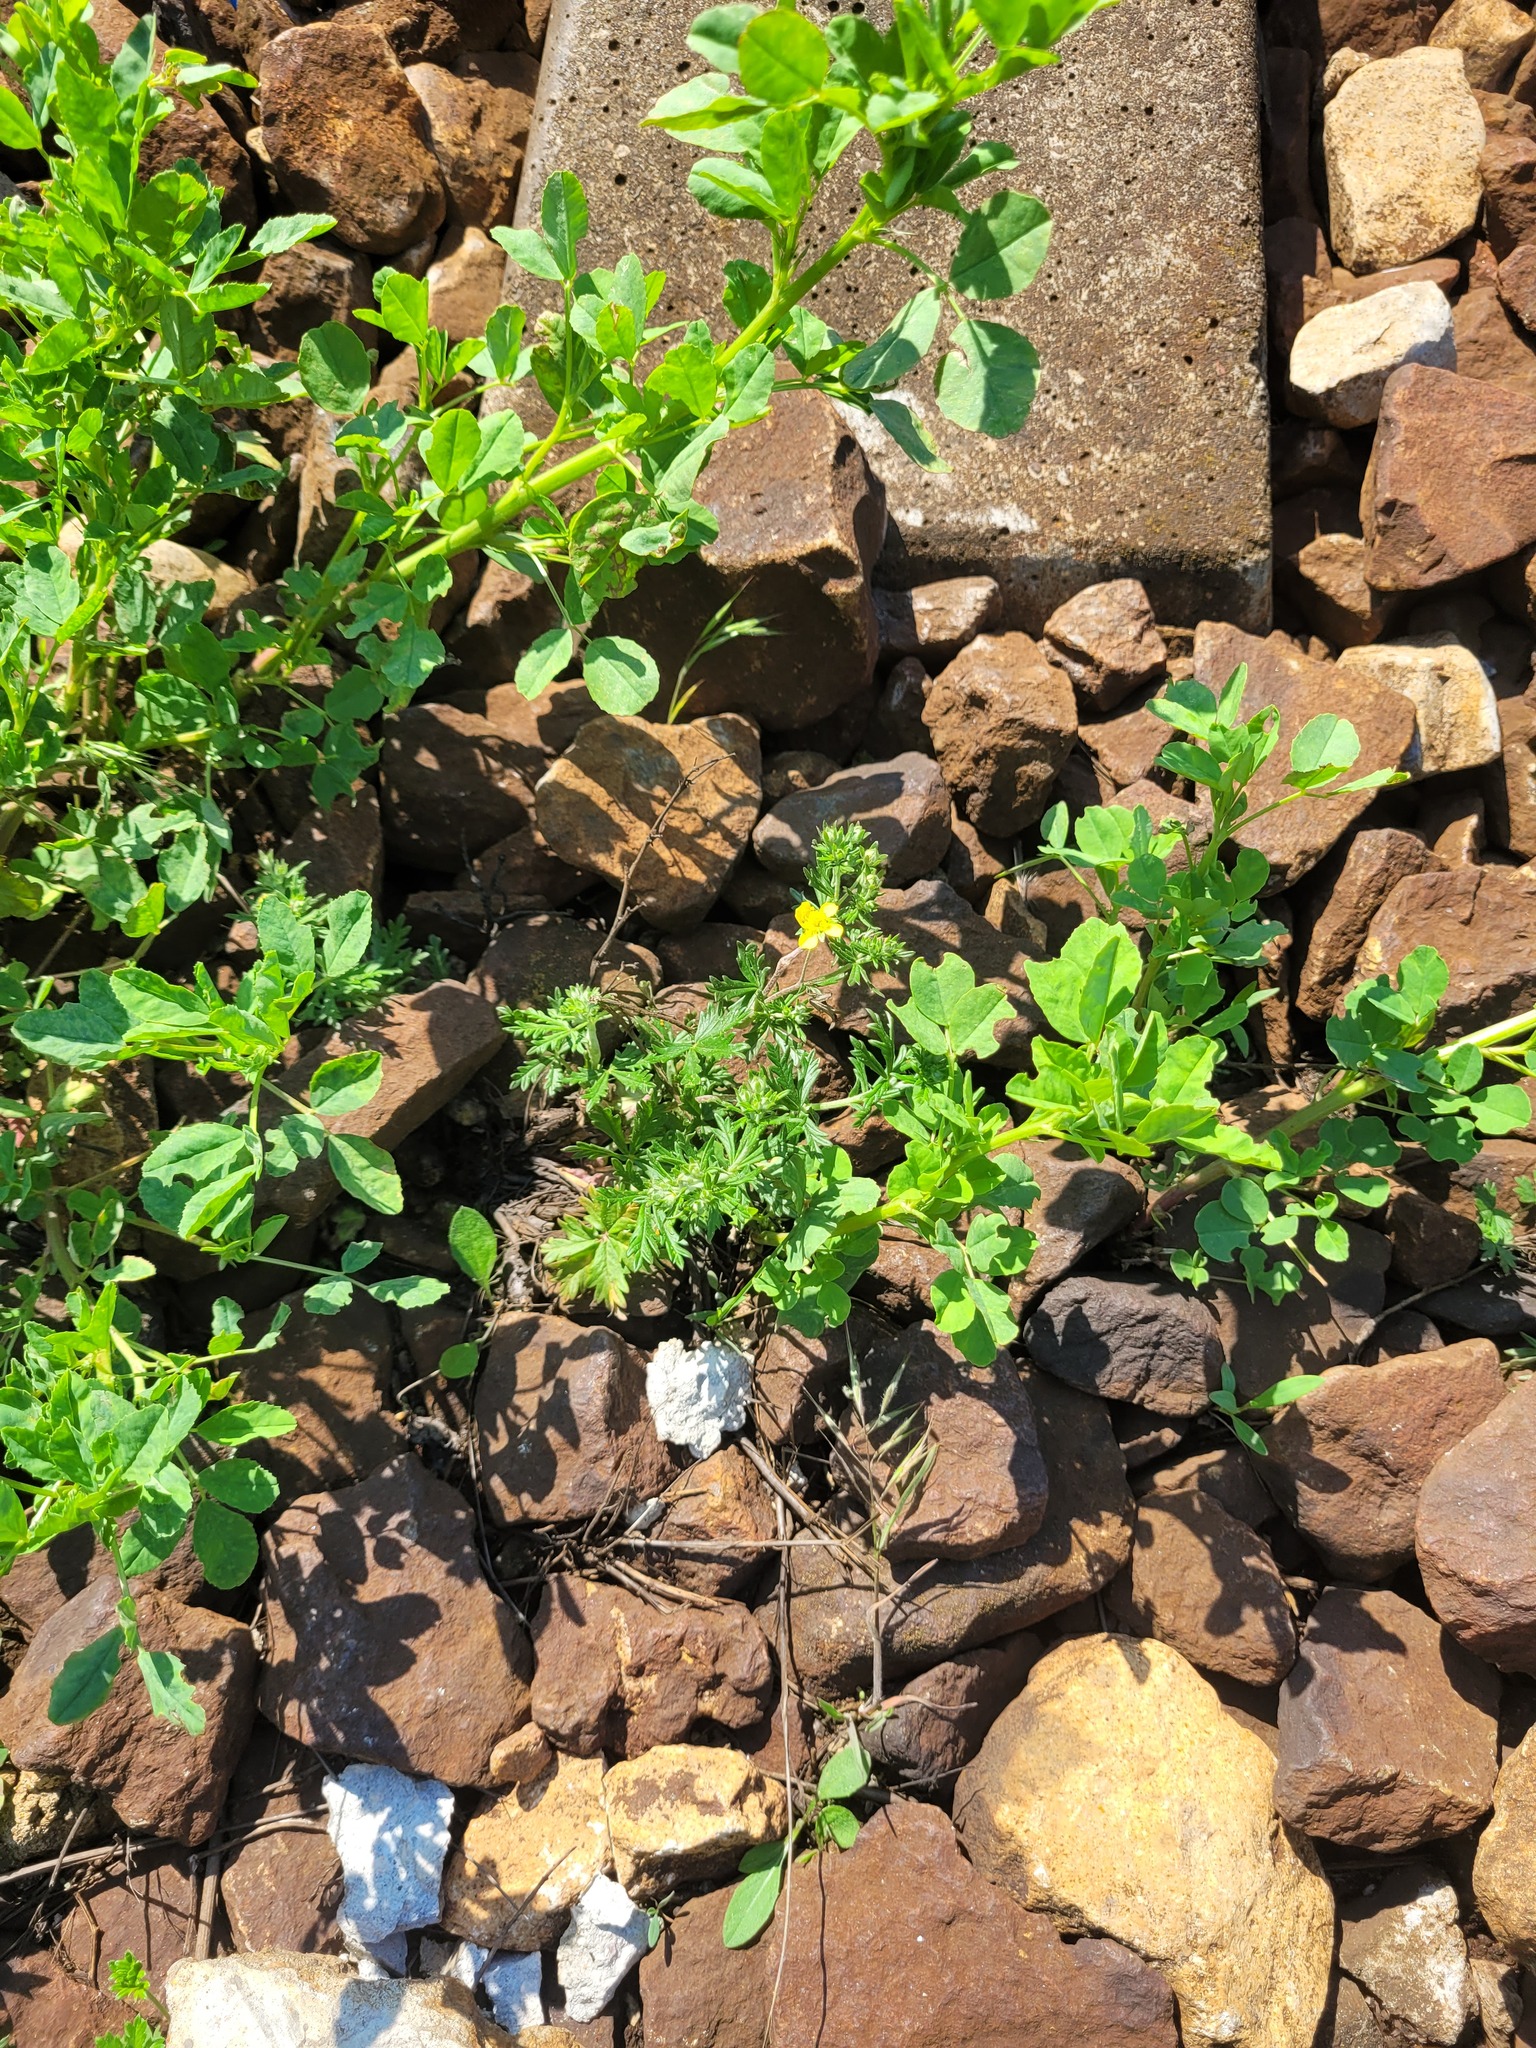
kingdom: Plantae
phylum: Tracheophyta
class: Magnoliopsida
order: Rosales
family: Rosaceae
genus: Potentilla
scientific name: Potentilla argentea
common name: Hoary cinquefoil
